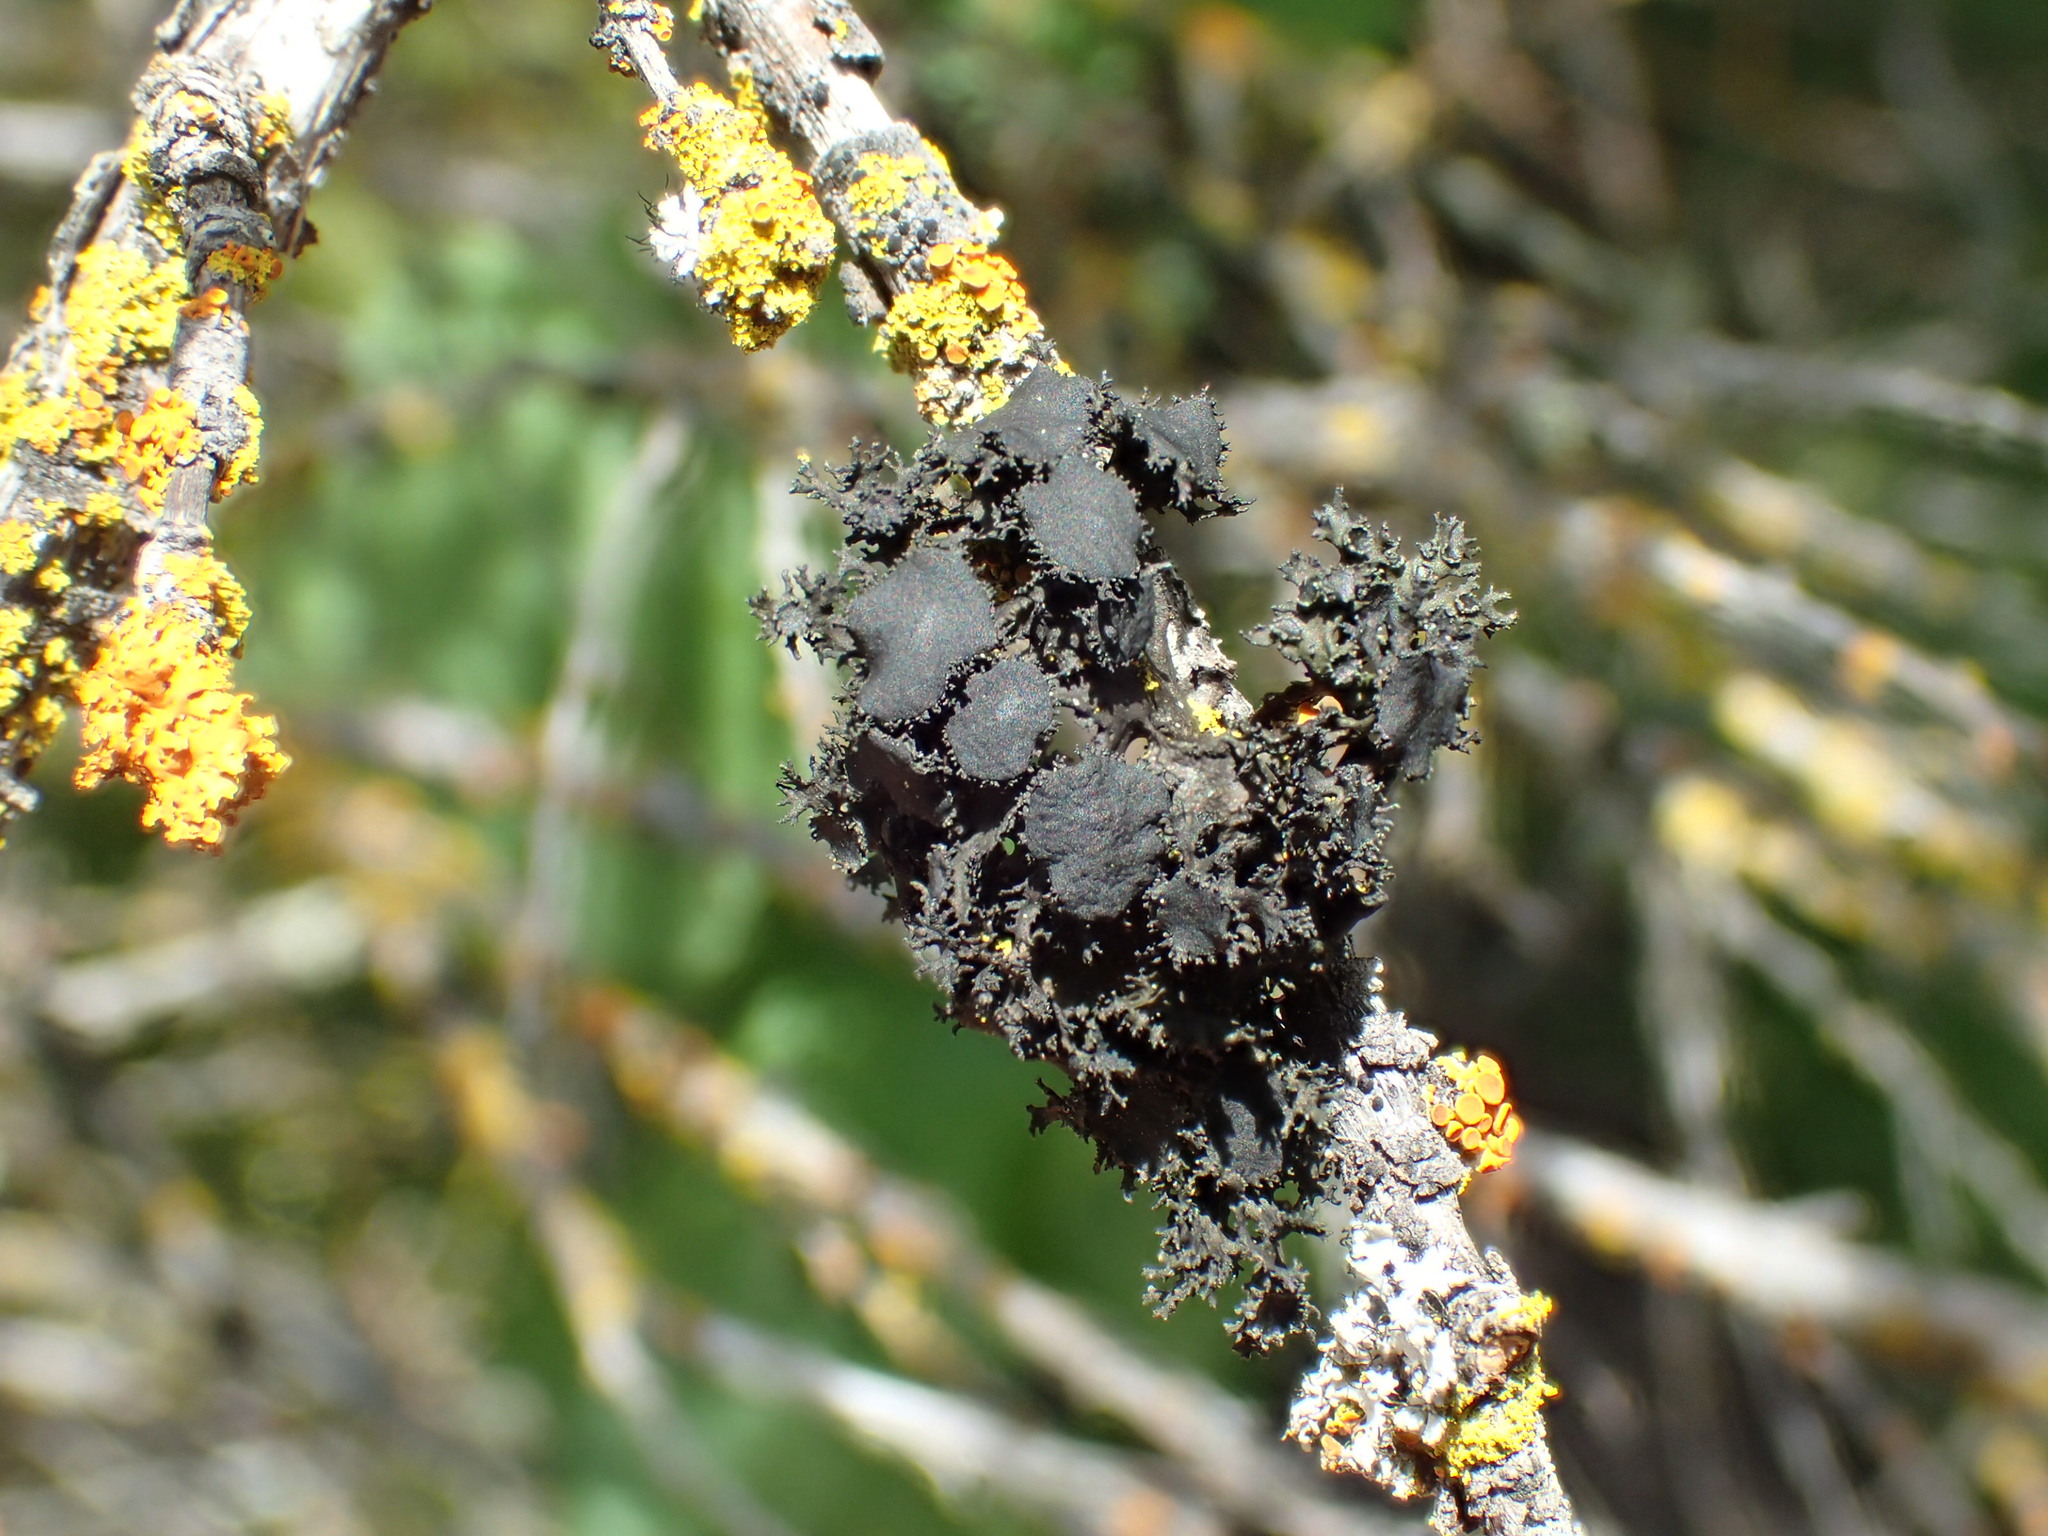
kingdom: Fungi
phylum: Ascomycota
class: Lecanoromycetes
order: Lecanorales
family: Parmeliaceae
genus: Nephromopsis
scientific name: Nephromopsis merrillii
